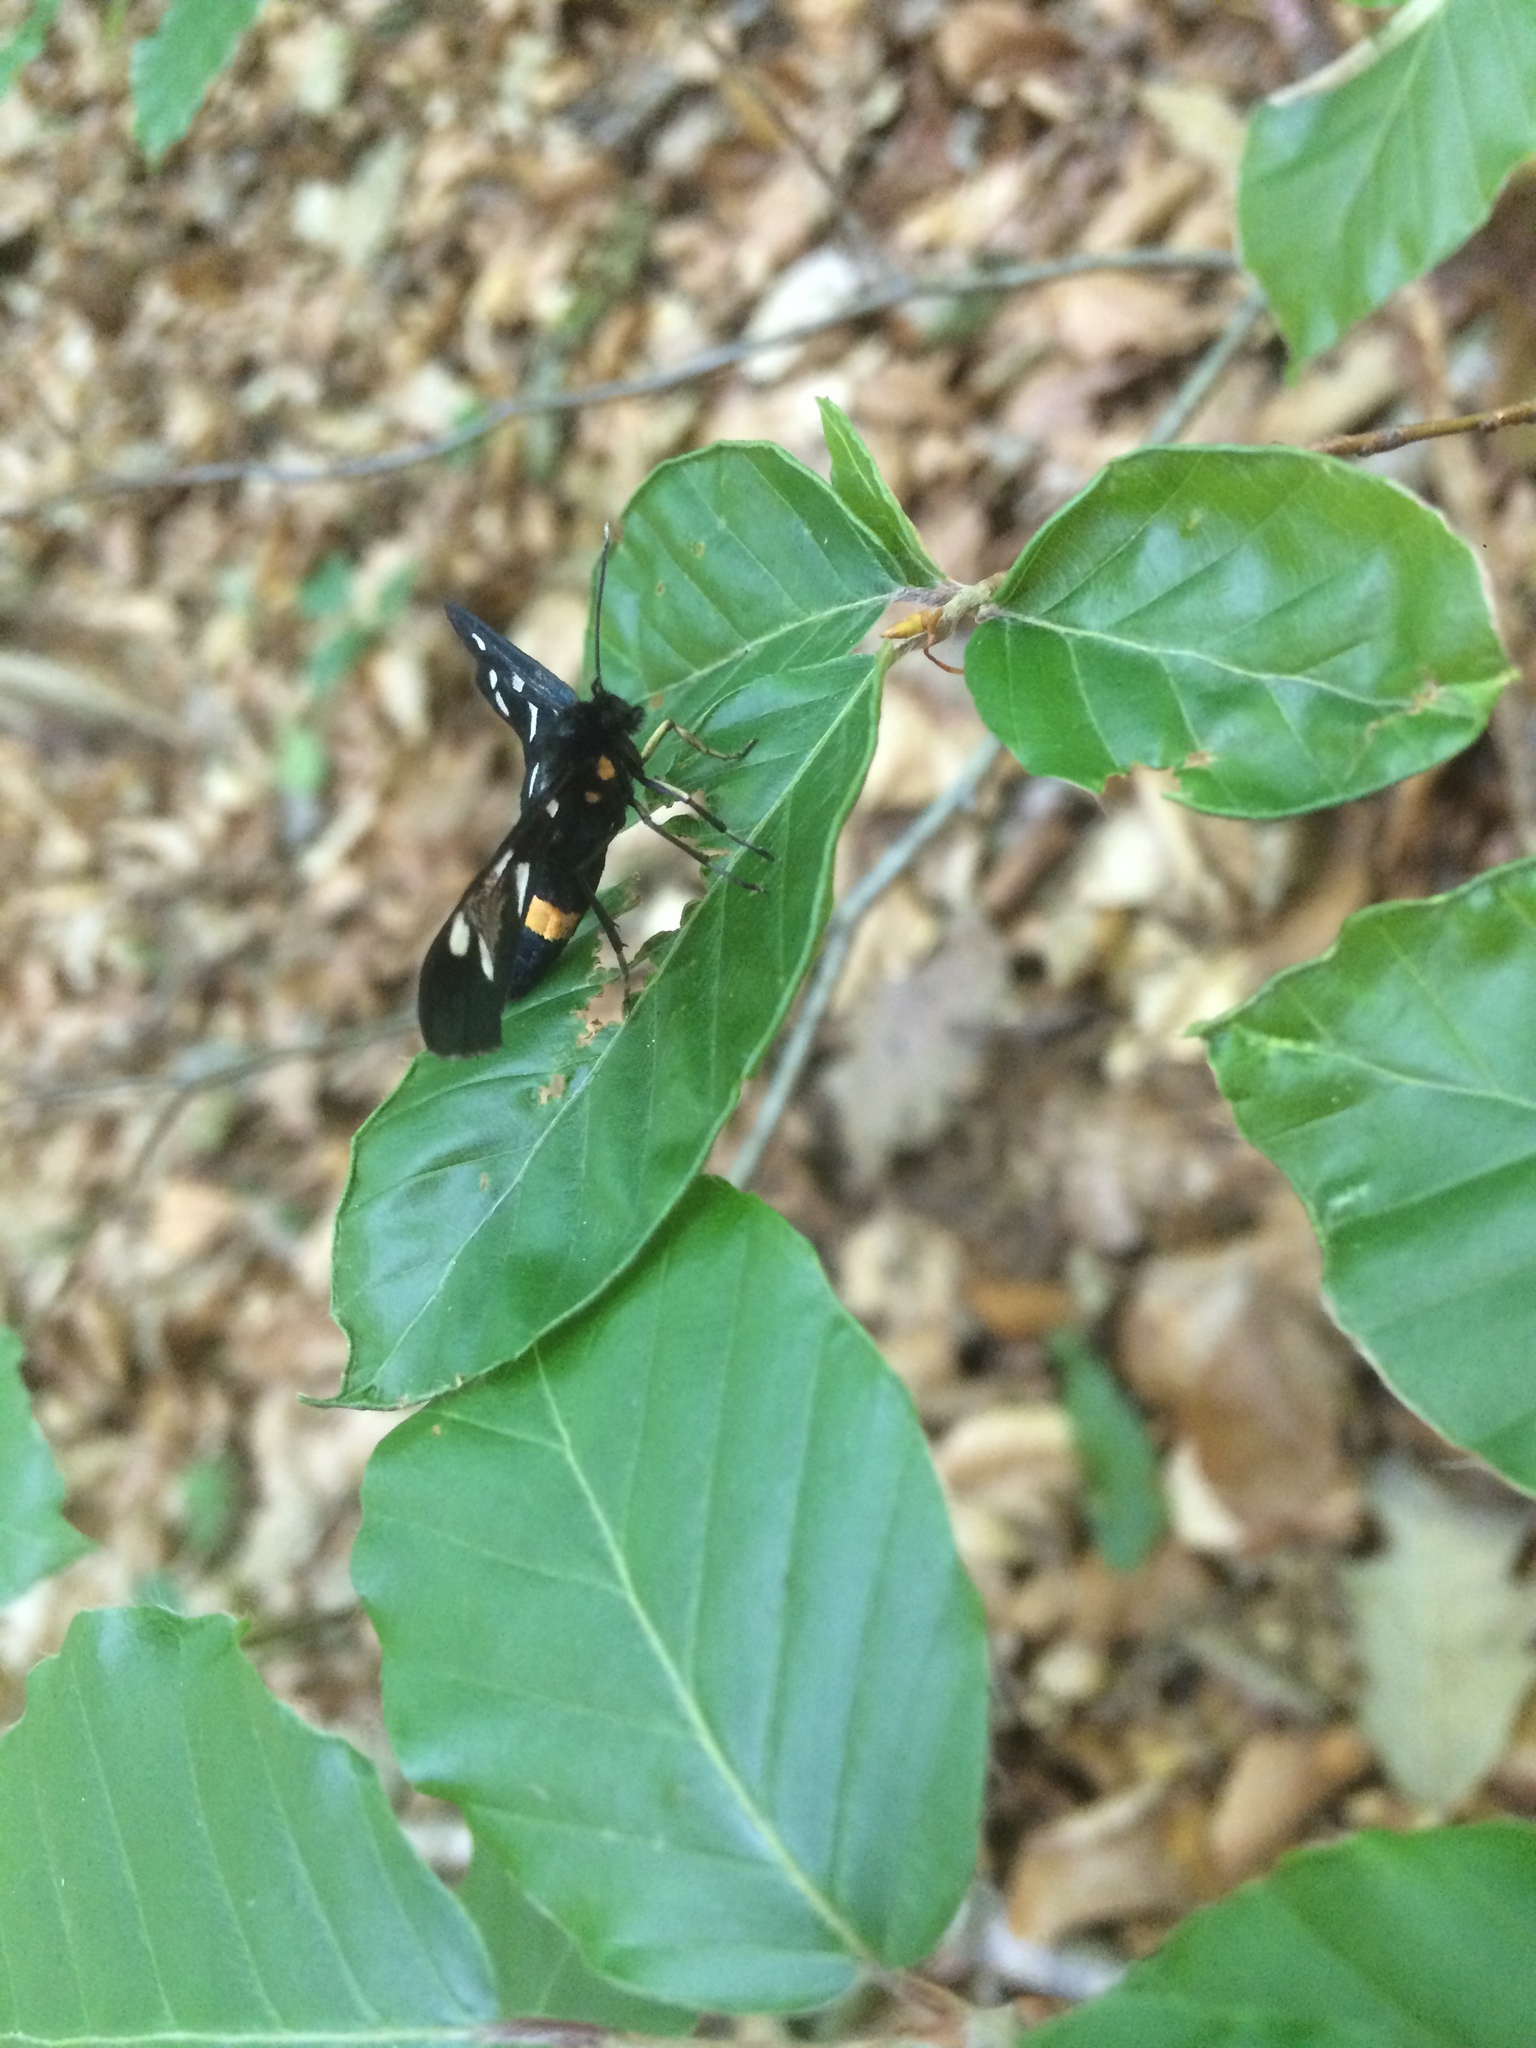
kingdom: Animalia
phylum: Arthropoda
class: Insecta
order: Lepidoptera
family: Erebidae
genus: Amata
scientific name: Amata phegea
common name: Nine-spotted
